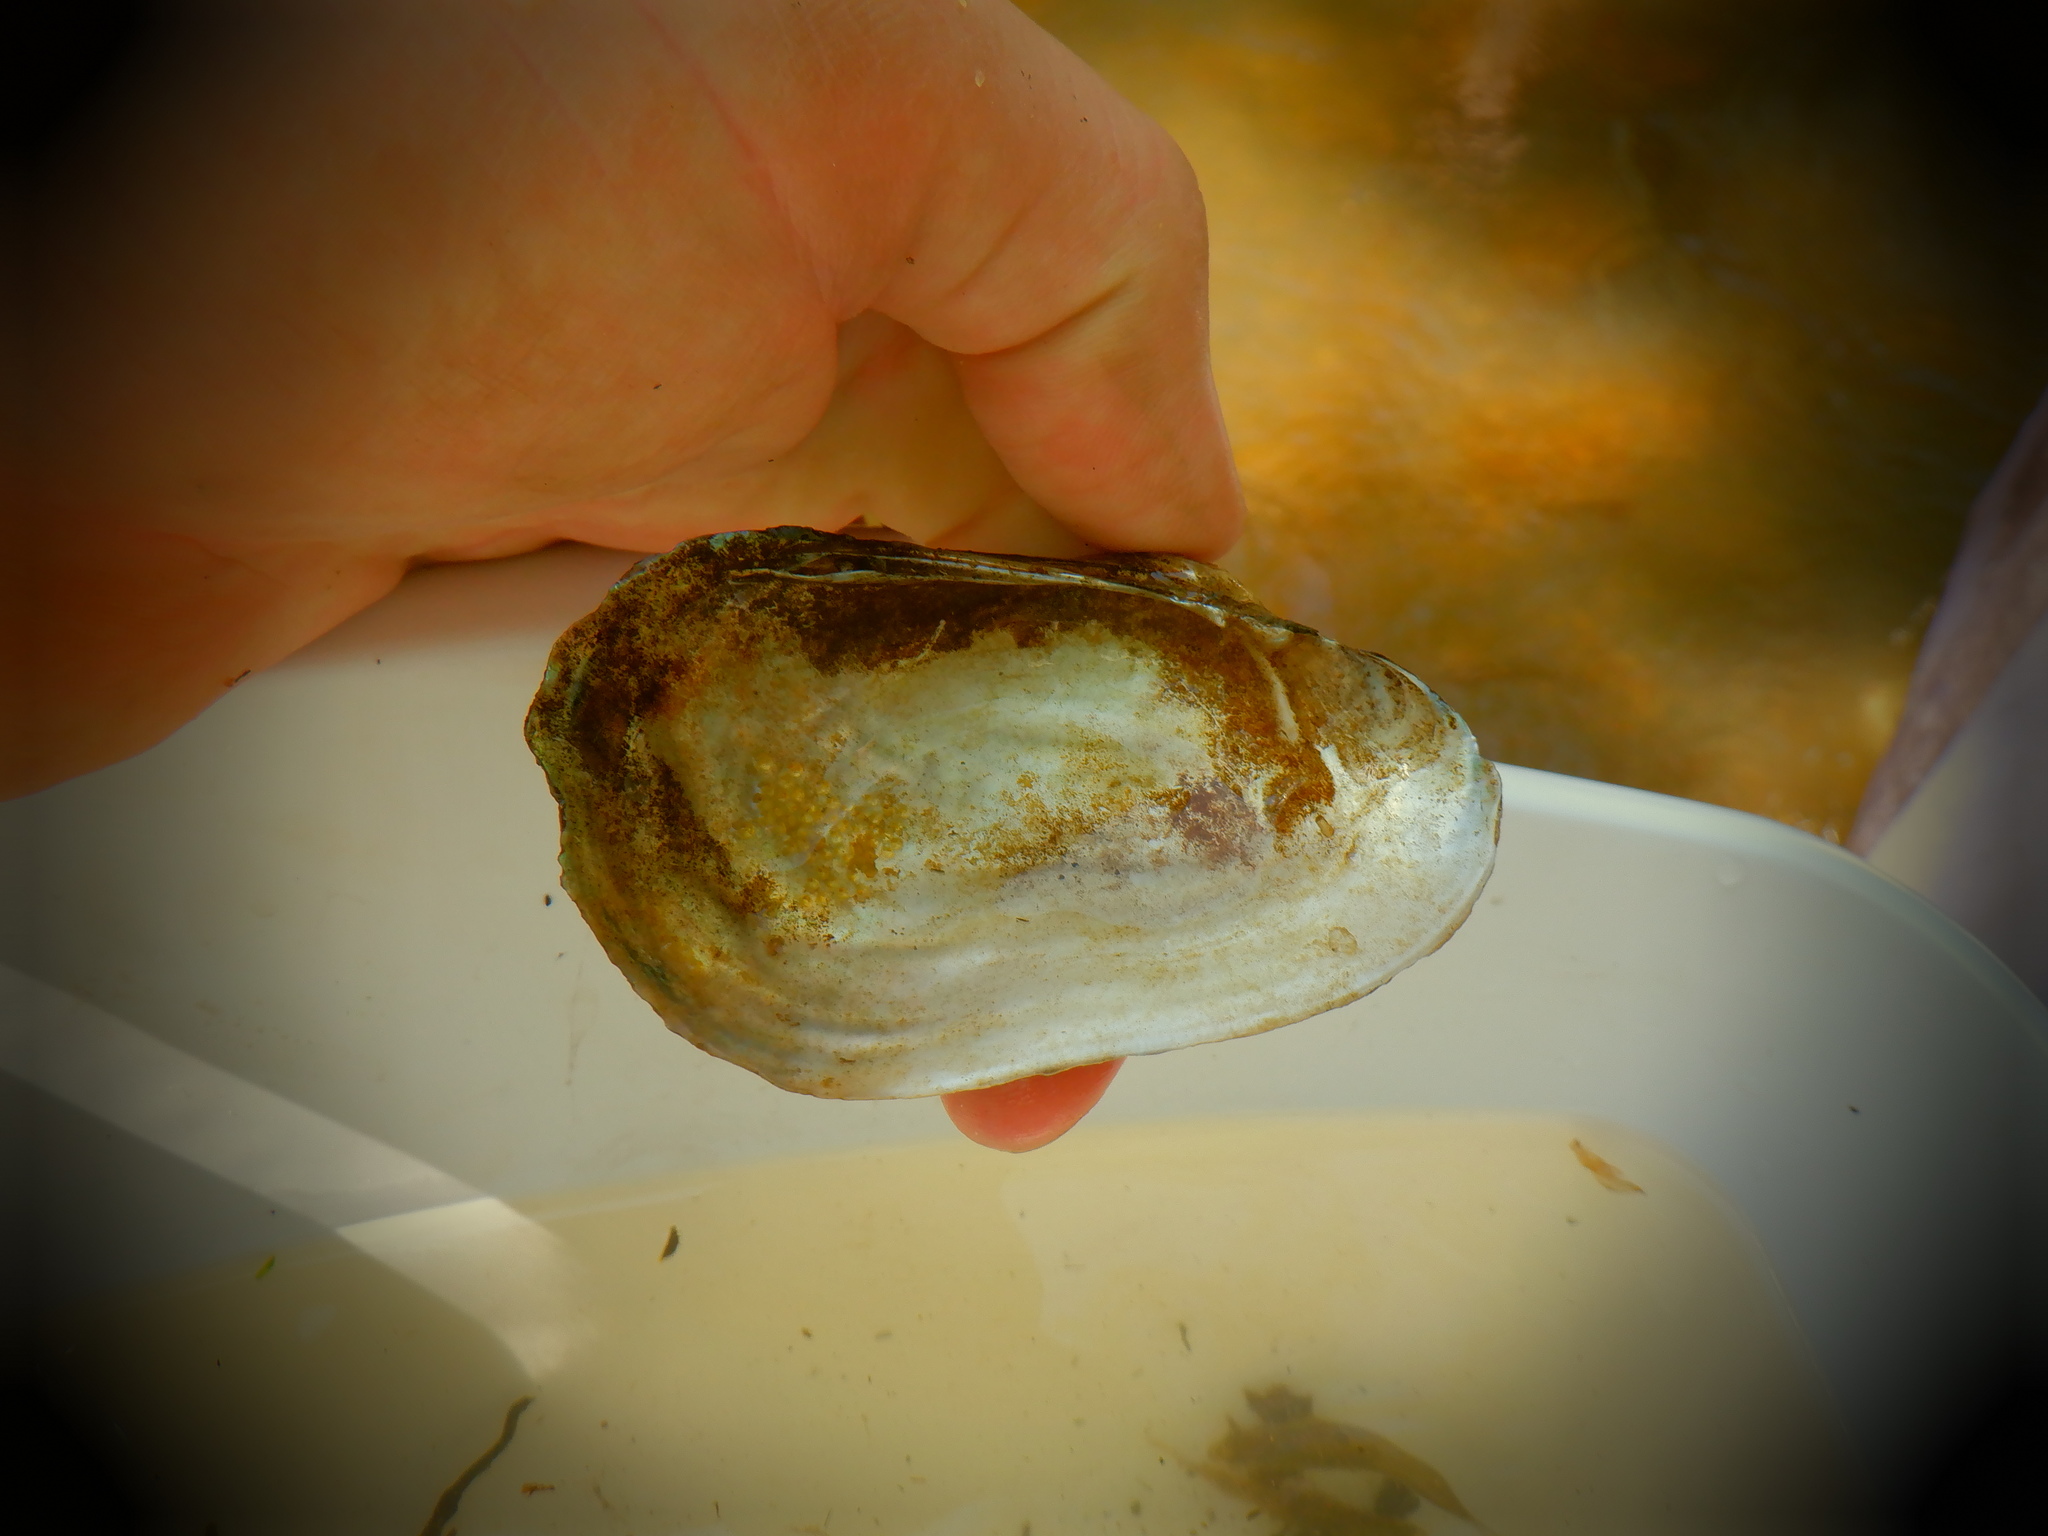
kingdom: Animalia
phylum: Mollusca
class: Bivalvia
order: Unionida
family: Unionidae
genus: Lampsilis
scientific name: Lampsilis siliquoidea
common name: Fatmucket
